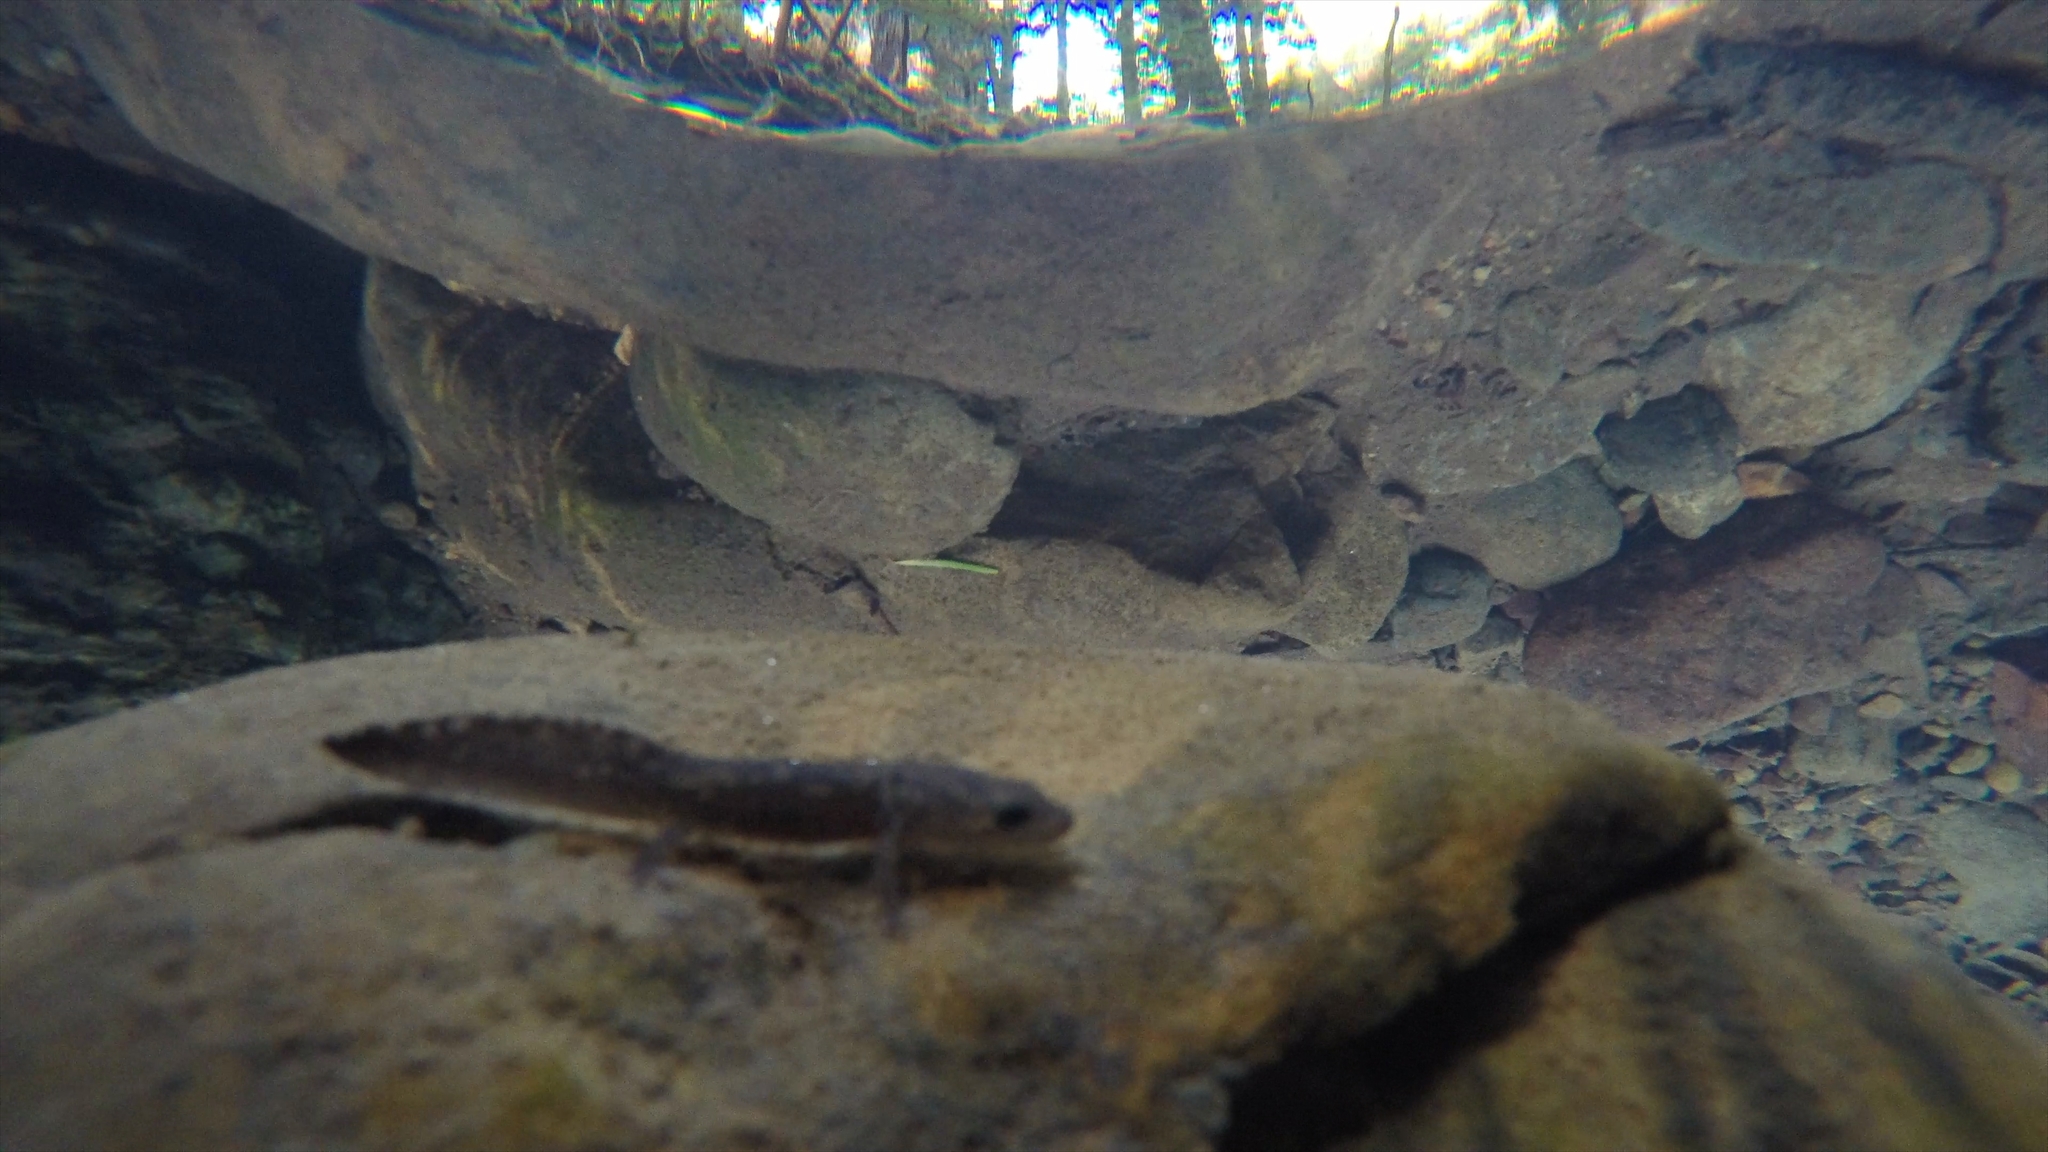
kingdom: Animalia
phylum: Chordata
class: Amphibia
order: Caudata
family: Ambystomatidae
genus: Dicamptodon
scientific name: Dicamptodon ensatus
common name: California giant salamander
